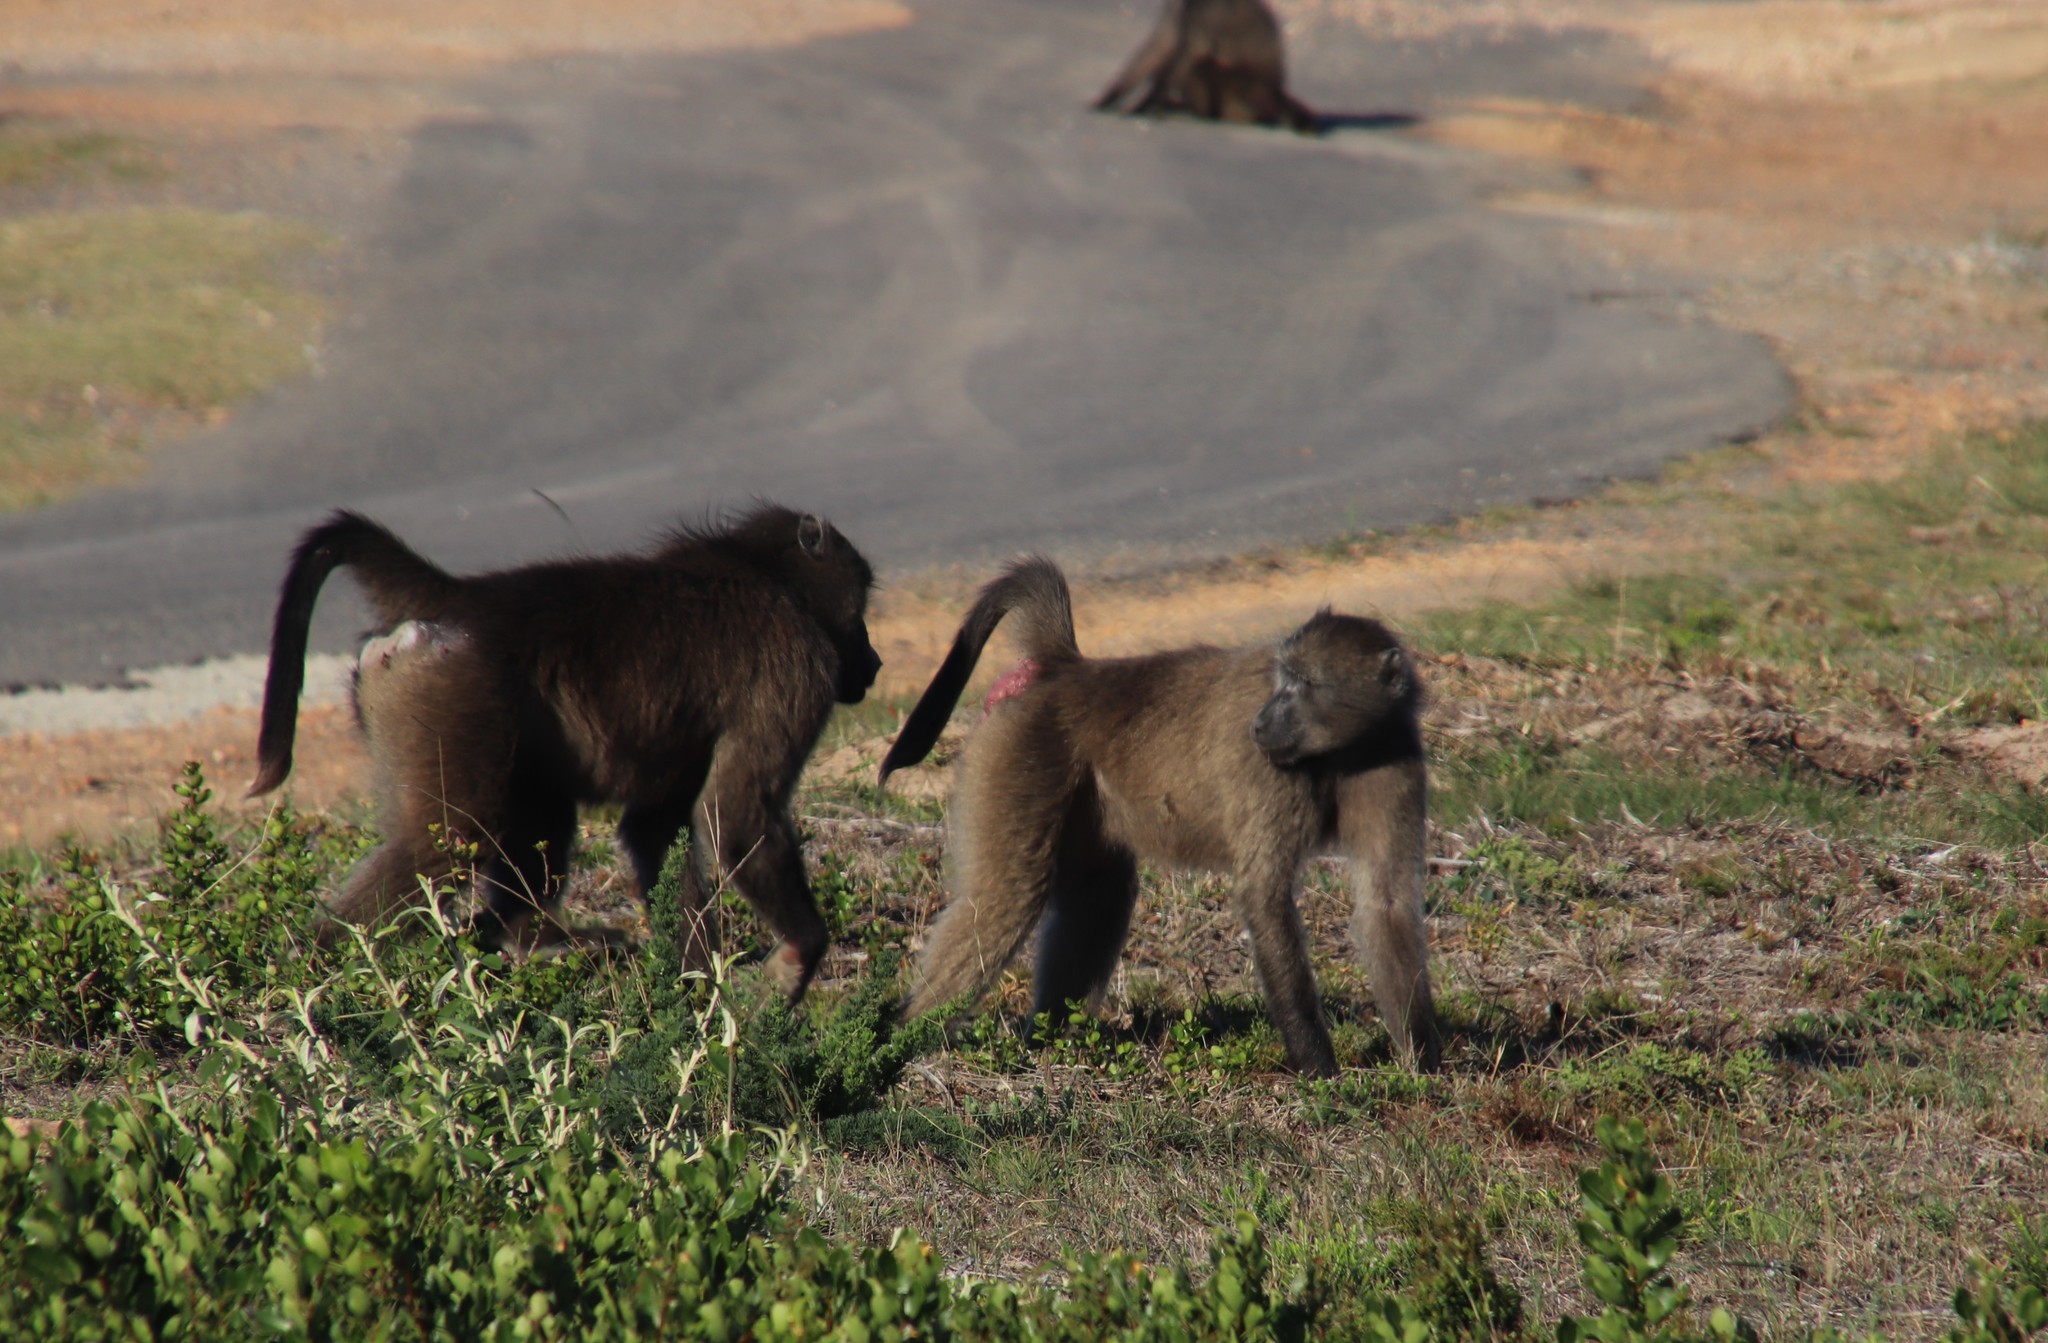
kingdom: Animalia
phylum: Chordata
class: Mammalia
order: Primates
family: Cercopithecidae
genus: Papio
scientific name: Papio ursinus
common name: Chacma baboon
